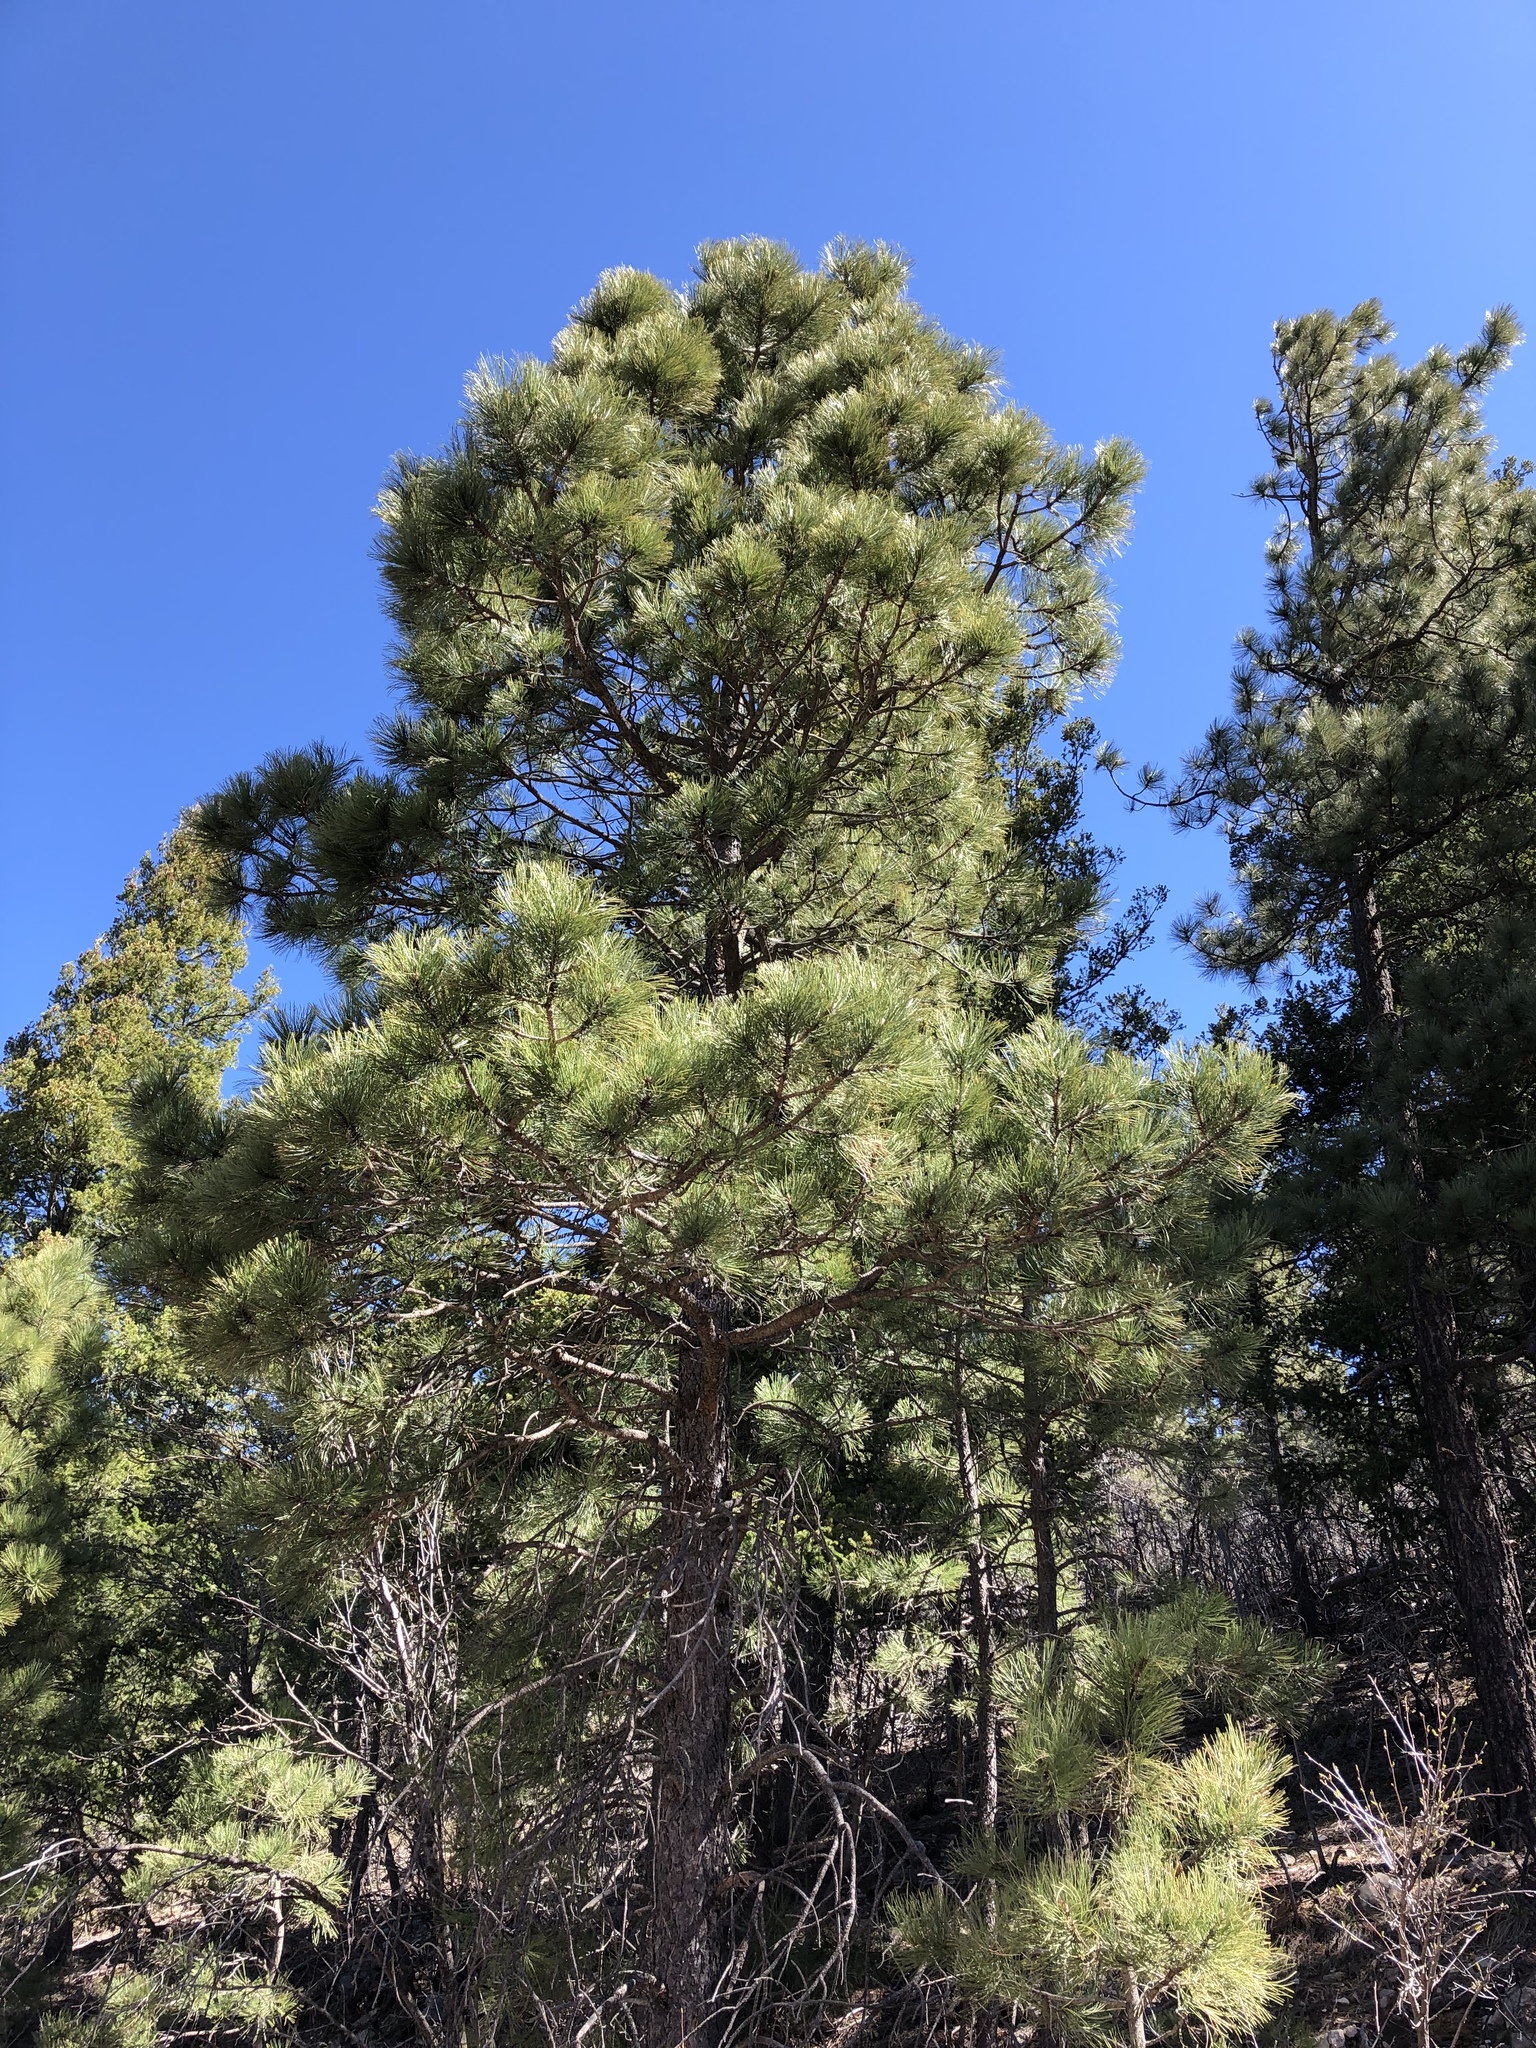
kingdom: Plantae
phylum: Tracheophyta
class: Pinopsida
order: Pinales
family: Pinaceae
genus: Pinus
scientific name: Pinus ponderosa
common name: Western yellow-pine
